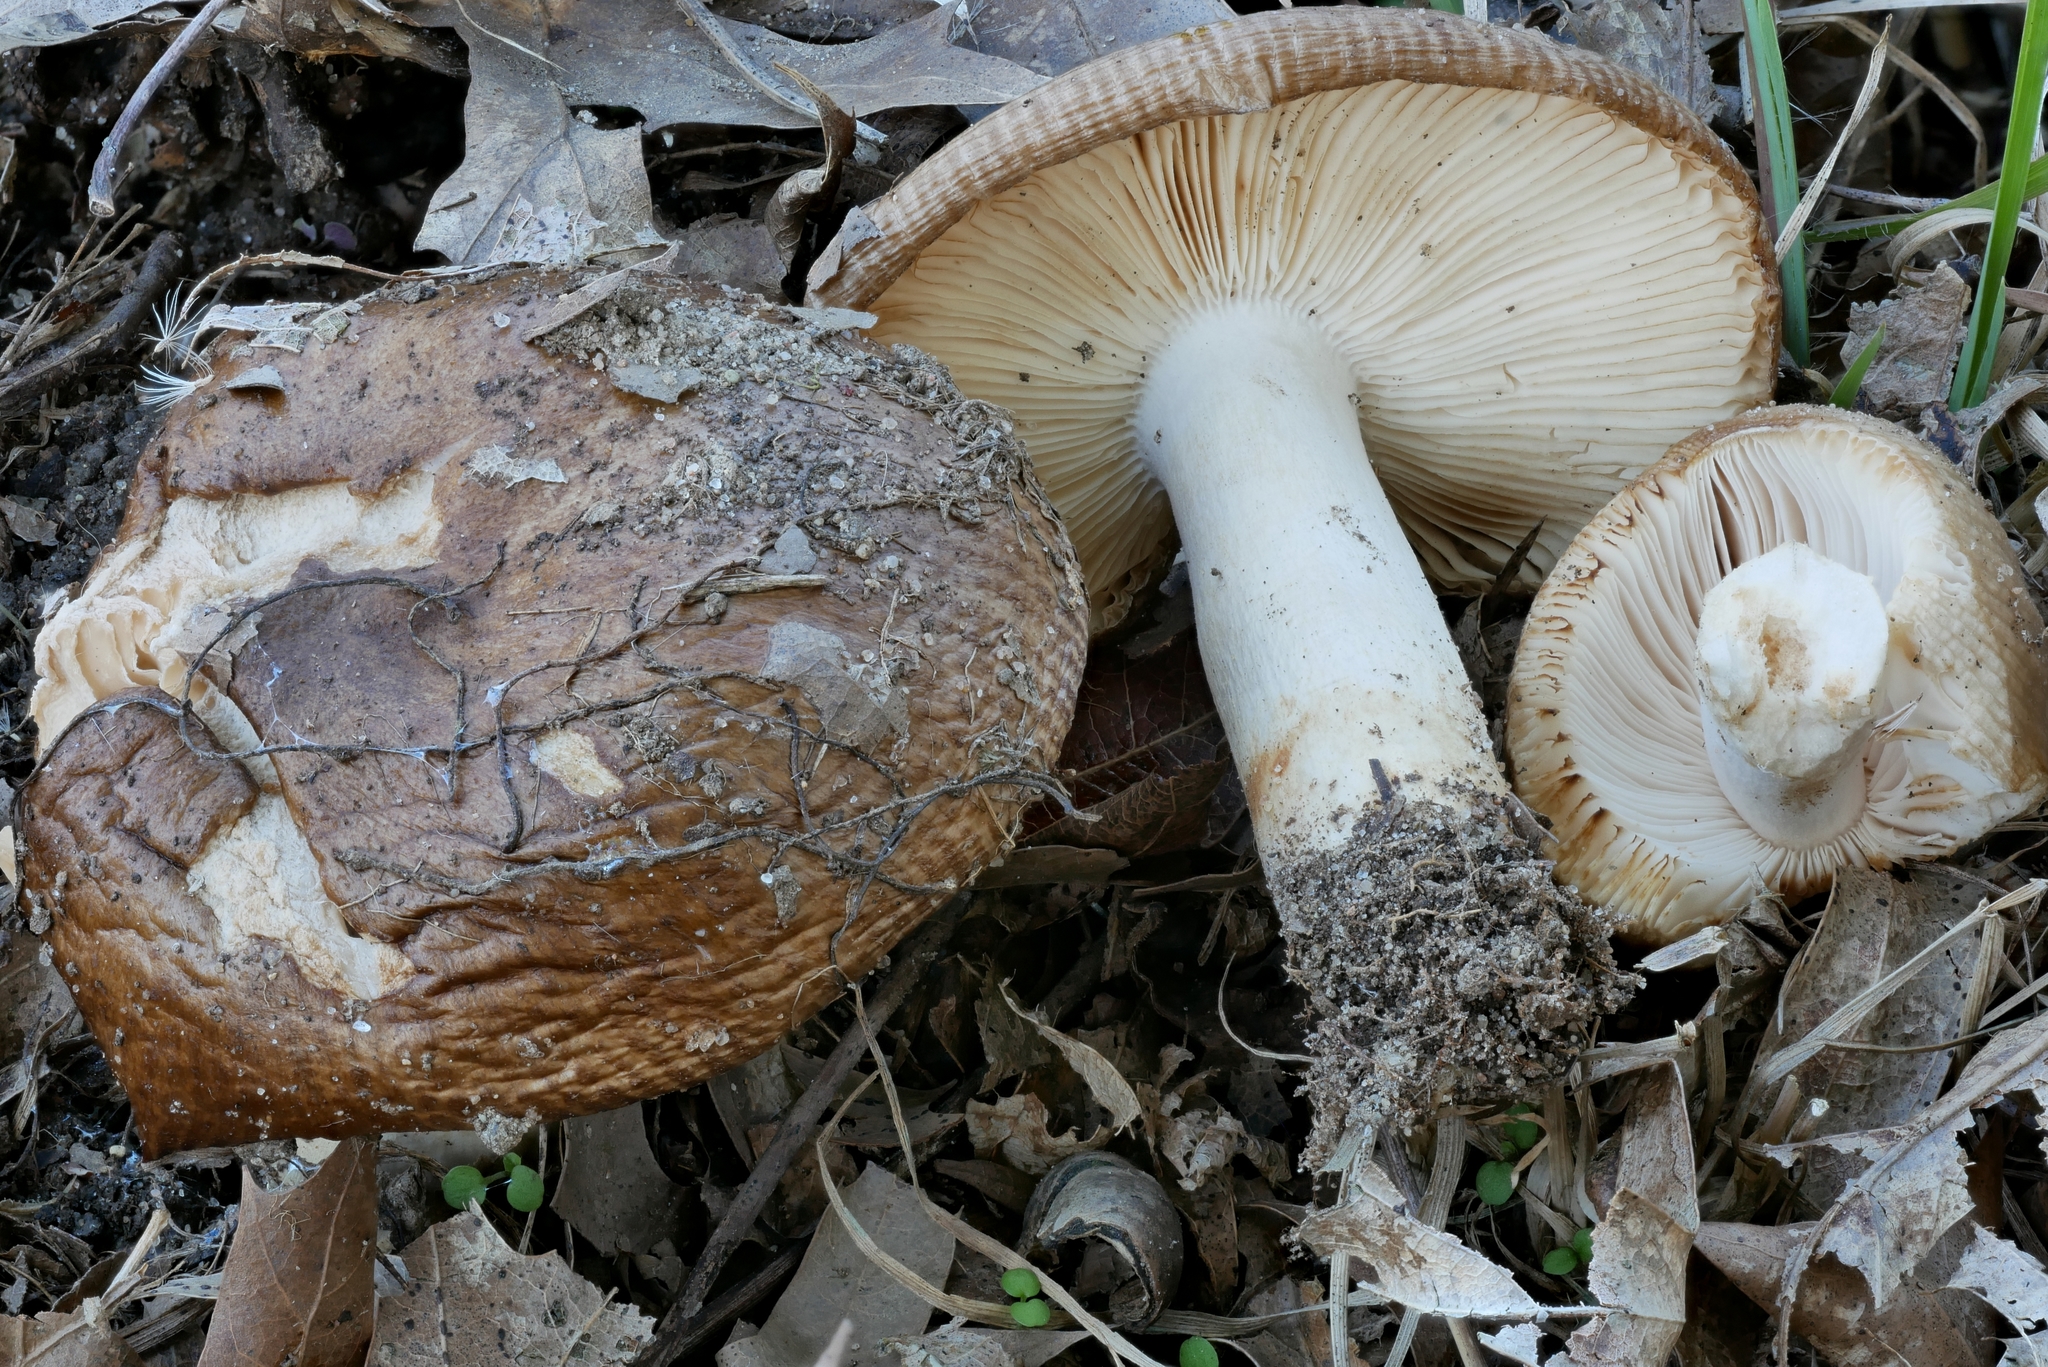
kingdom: Fungi
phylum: Basidiomycota
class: Agaricomycetes
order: Russulales
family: Russulaceae
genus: Russula
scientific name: Russula pectinatoides
